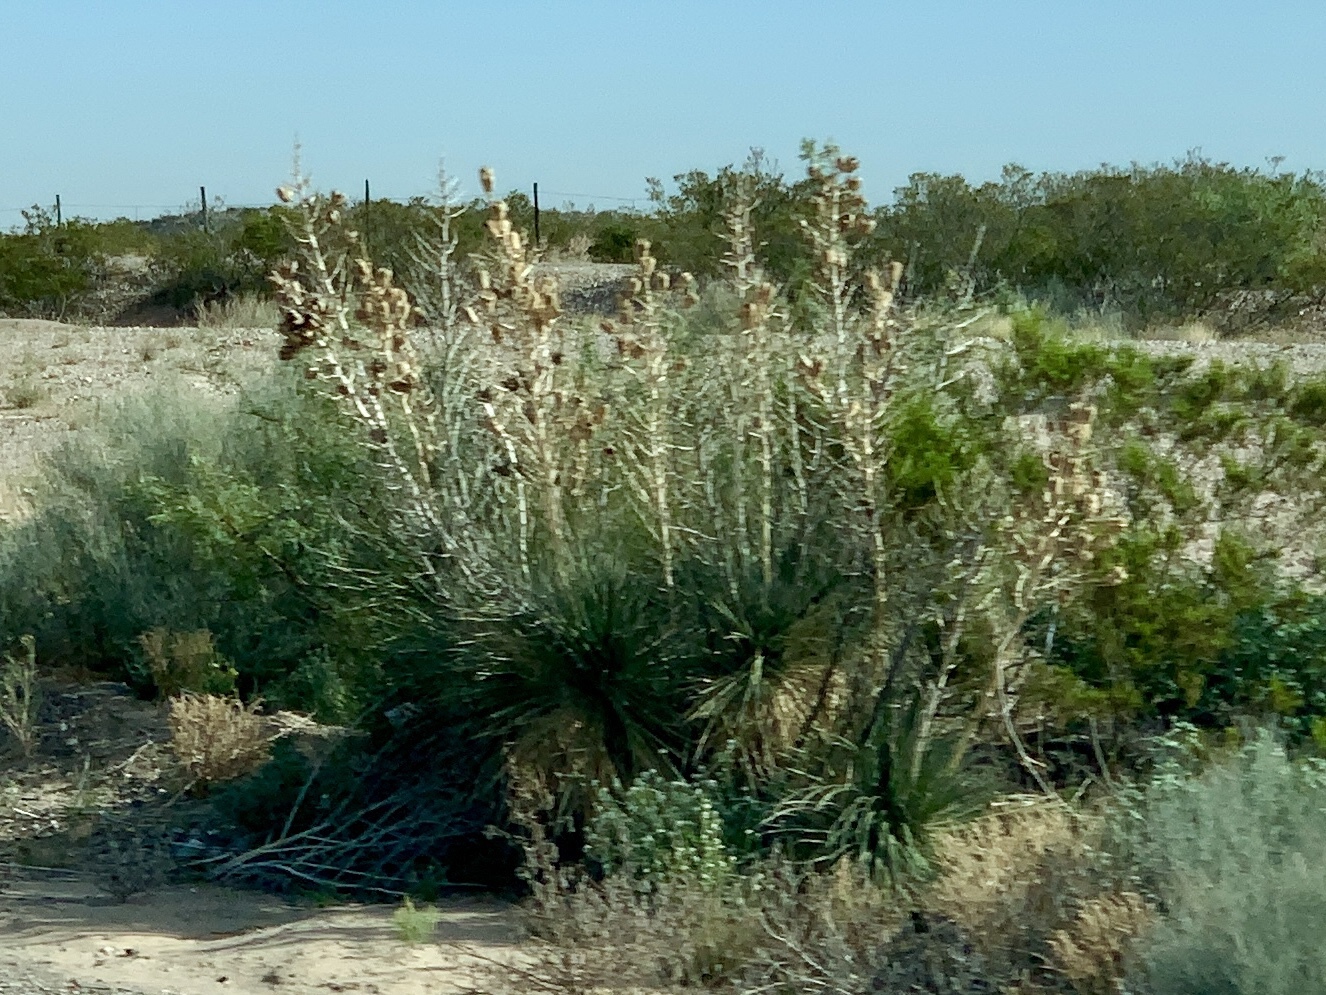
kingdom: Plantae
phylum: Tracheophyta
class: Liliopsida
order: Asparagales
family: Asparagaceae
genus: Yucca
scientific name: Yucca elata
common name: Palmella
